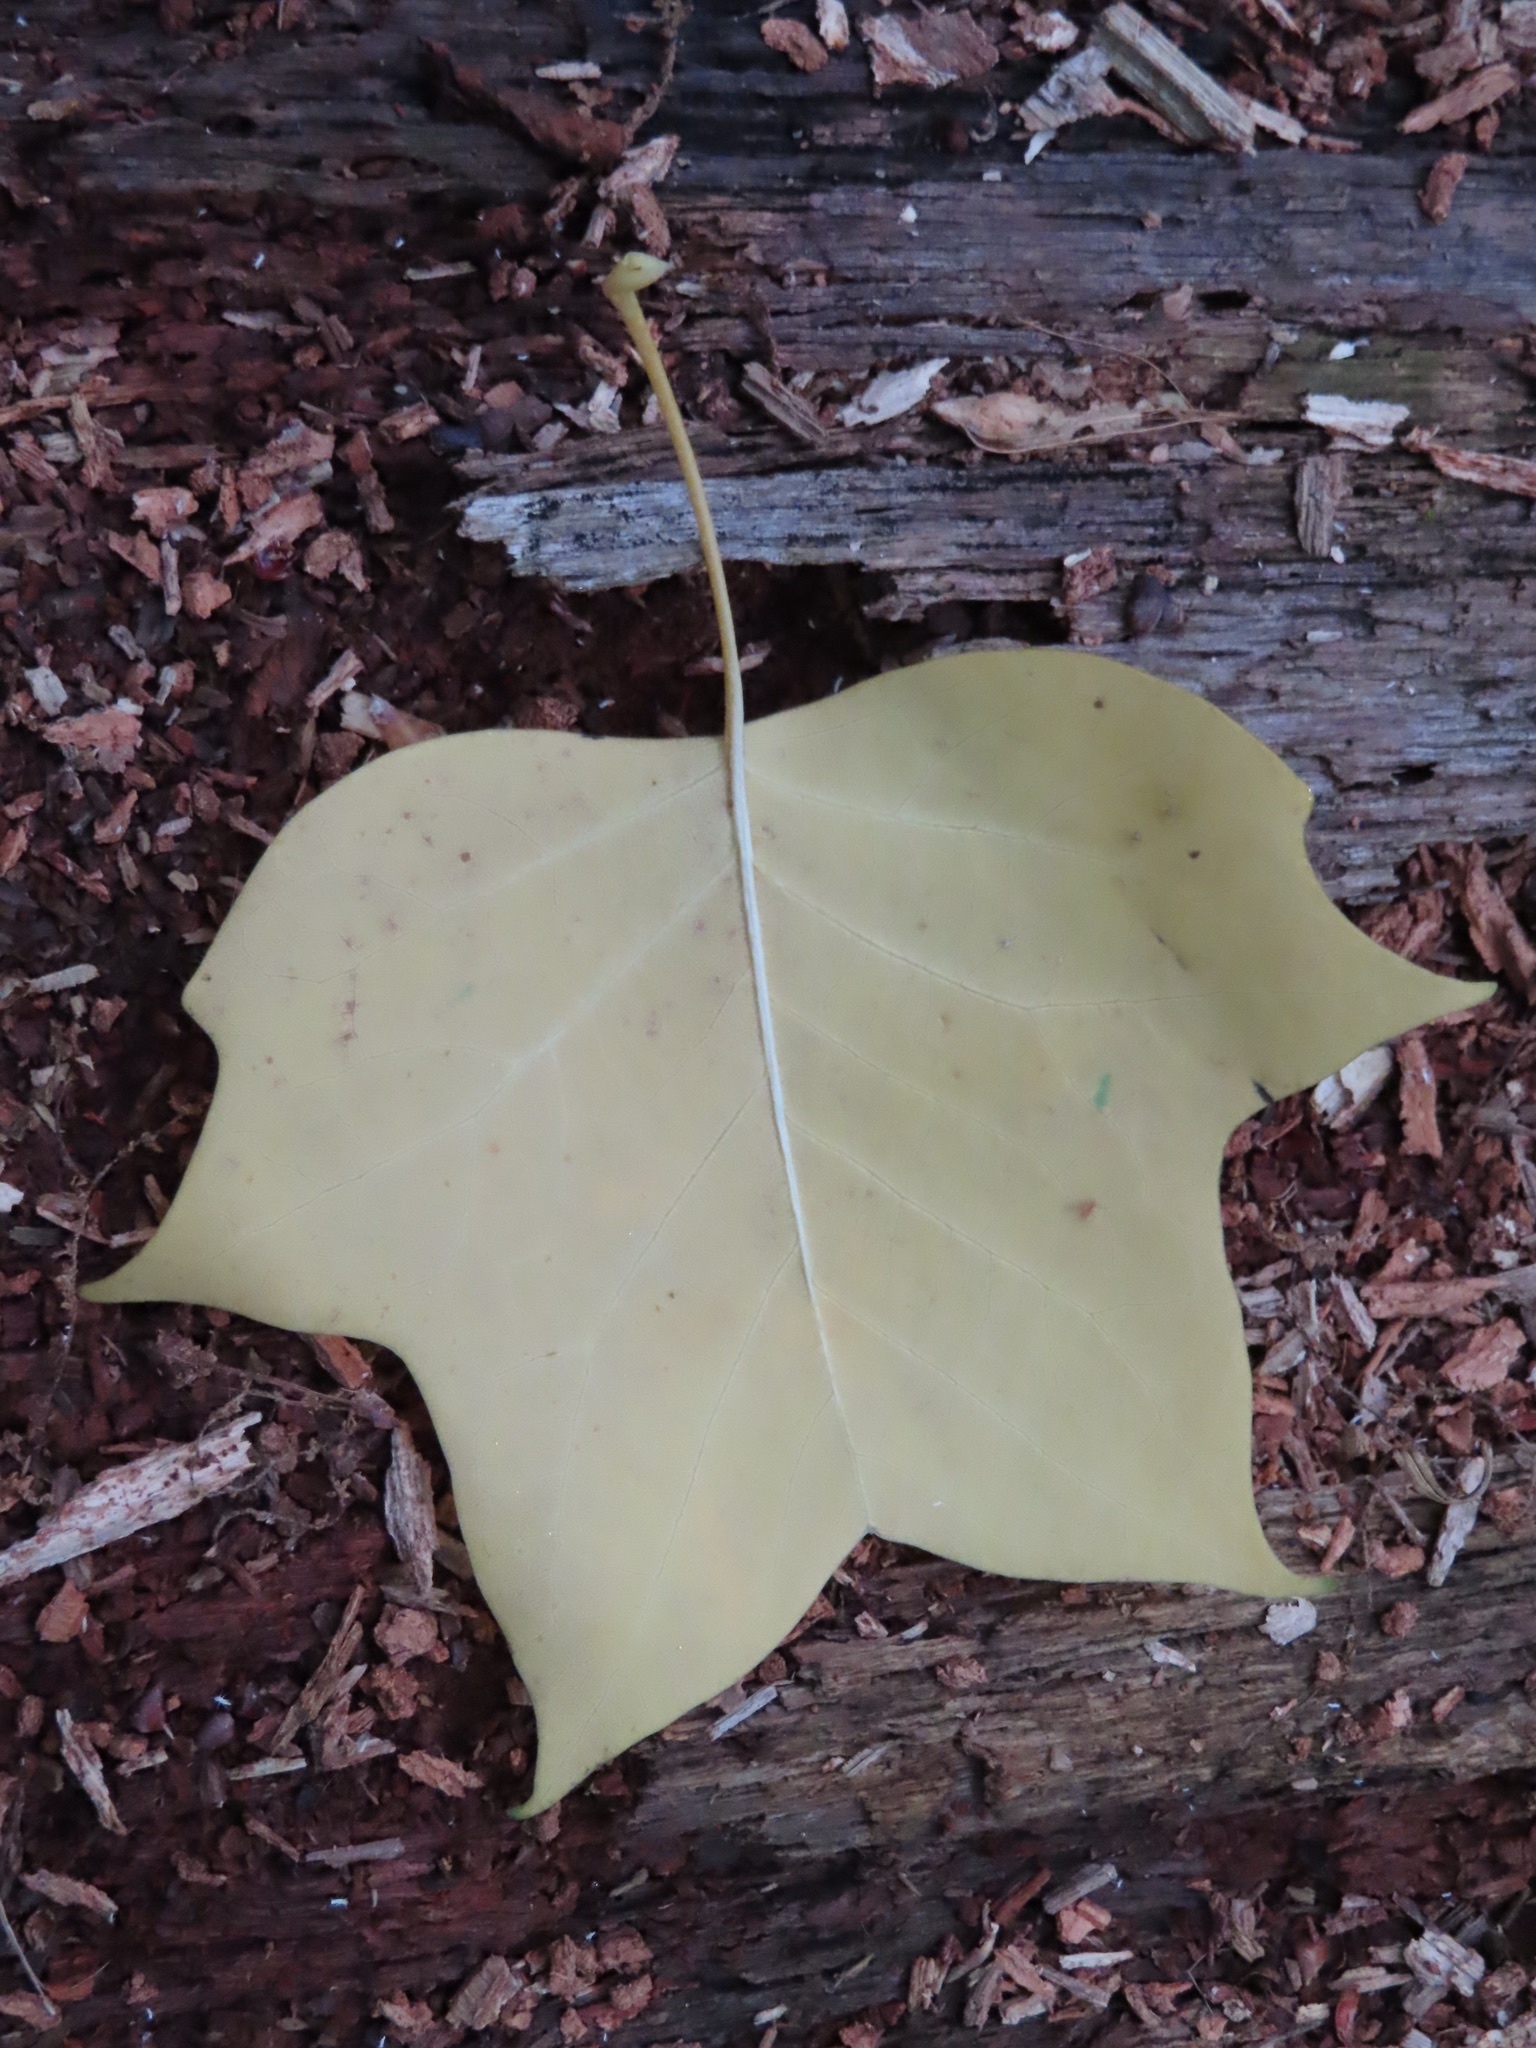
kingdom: Plantae
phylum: Tracheophyta
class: Magnoliopsida
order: Magnoliales
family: Magnoliaceae
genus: Liriodendron
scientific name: Liriodendron tulipifera
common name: Tulip tree
